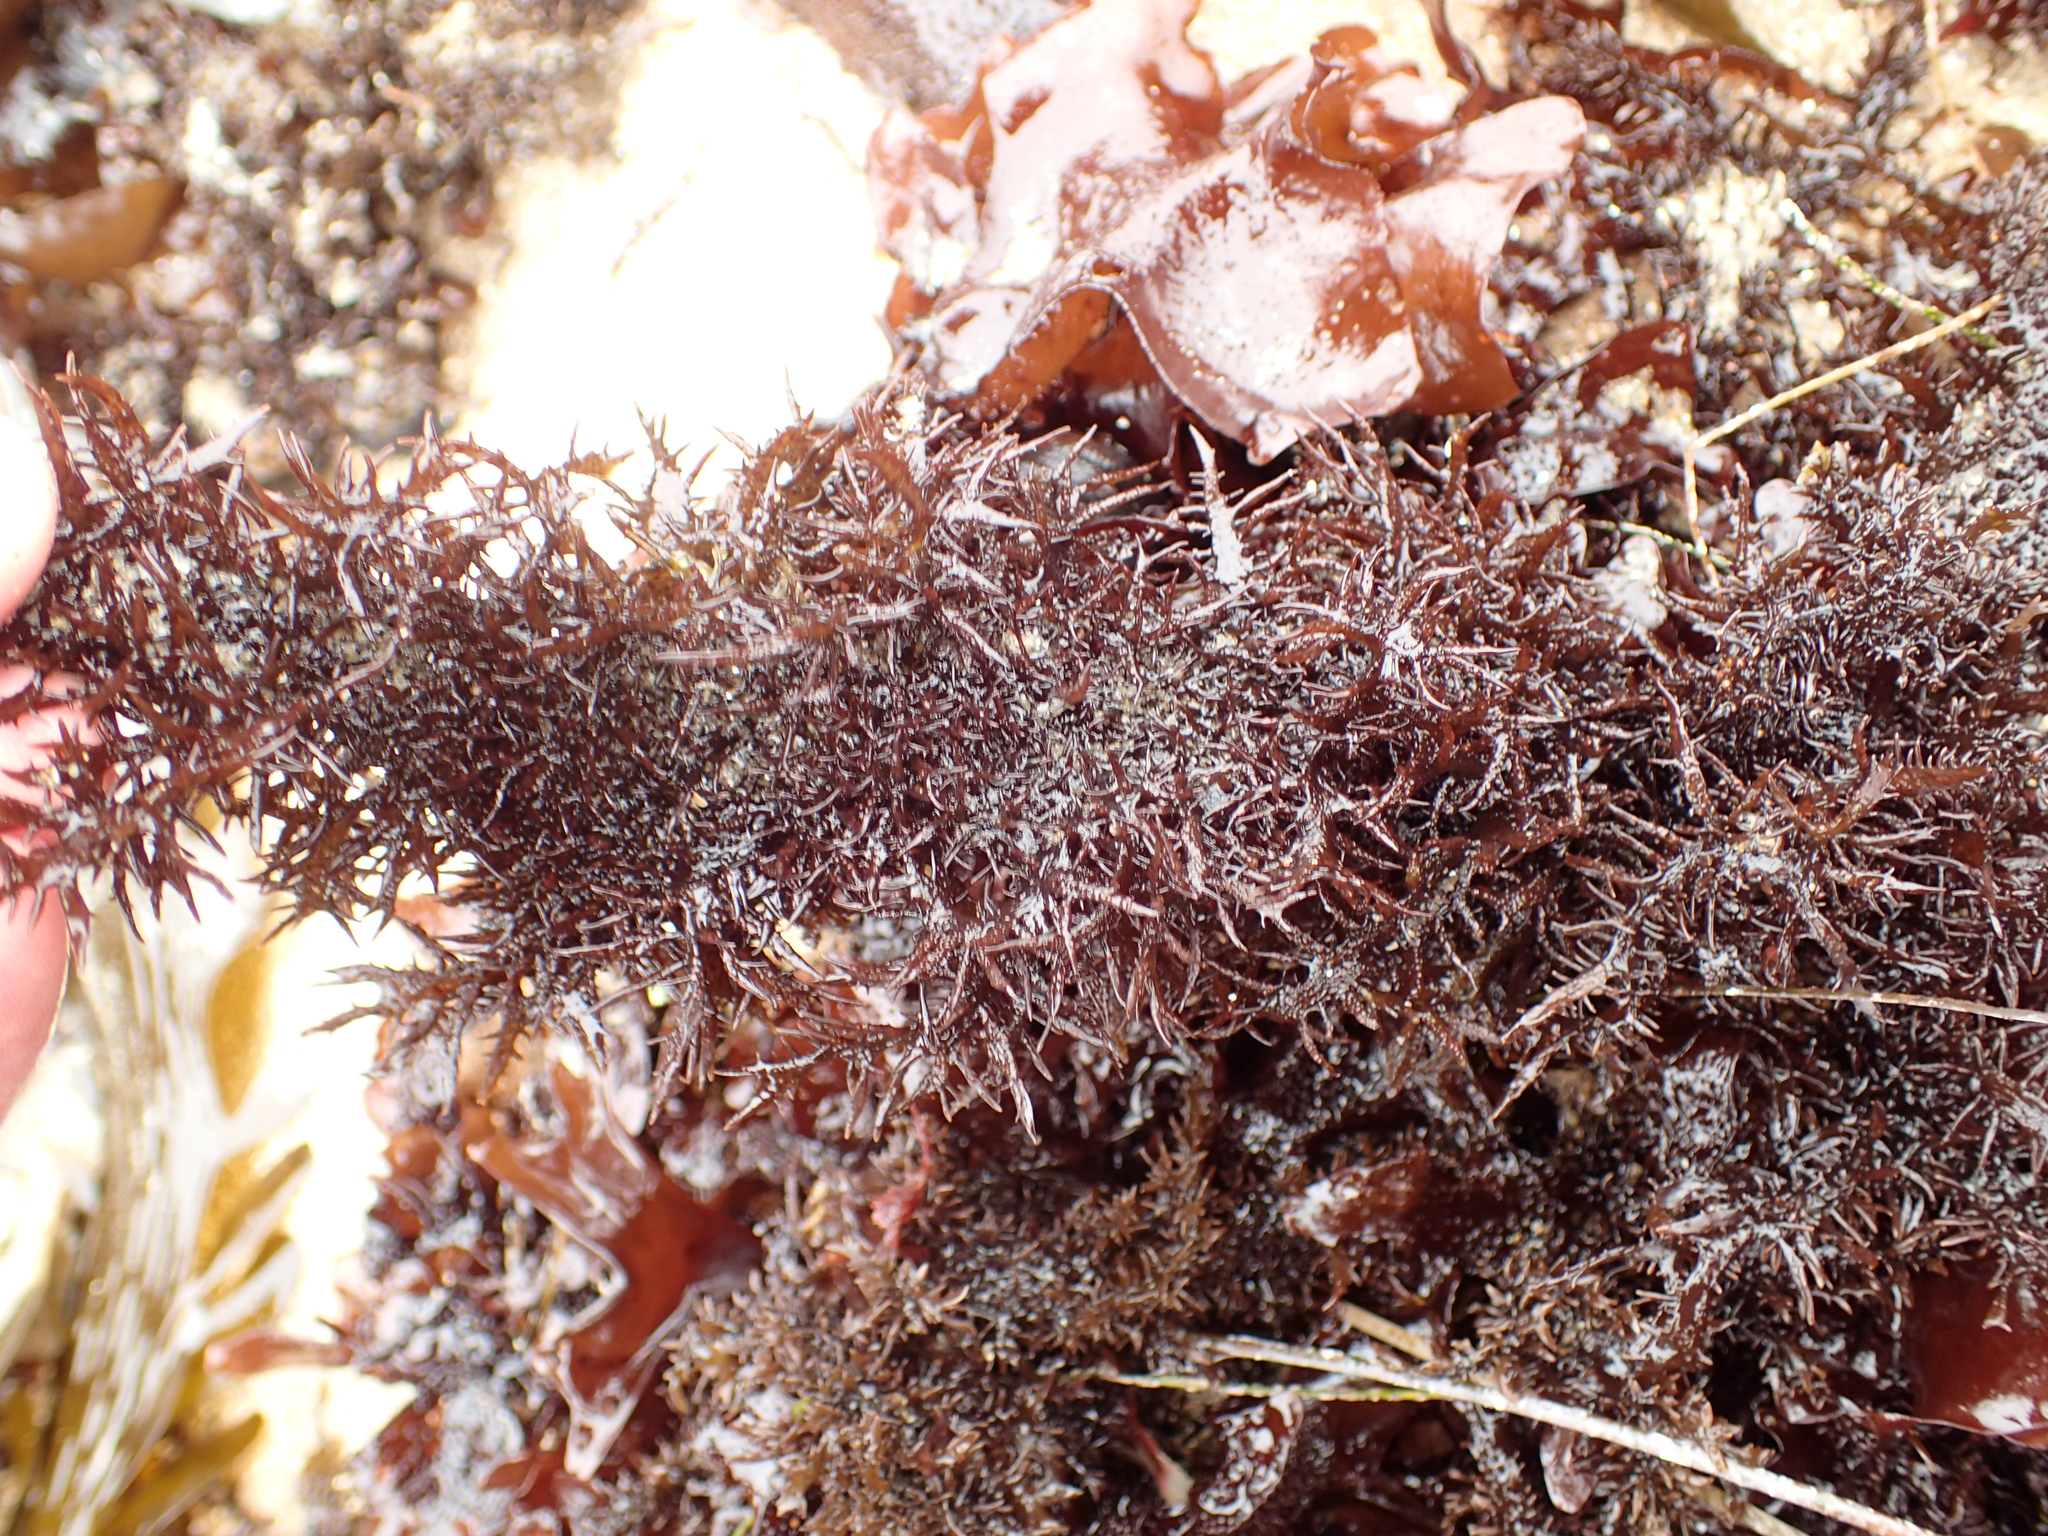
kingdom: Plantae
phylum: Rhodophyta
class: Florideophyceae
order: Gigartinales
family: Gigartinaceae
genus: Mazzaella
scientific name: Mazzaella leptorhynchos
